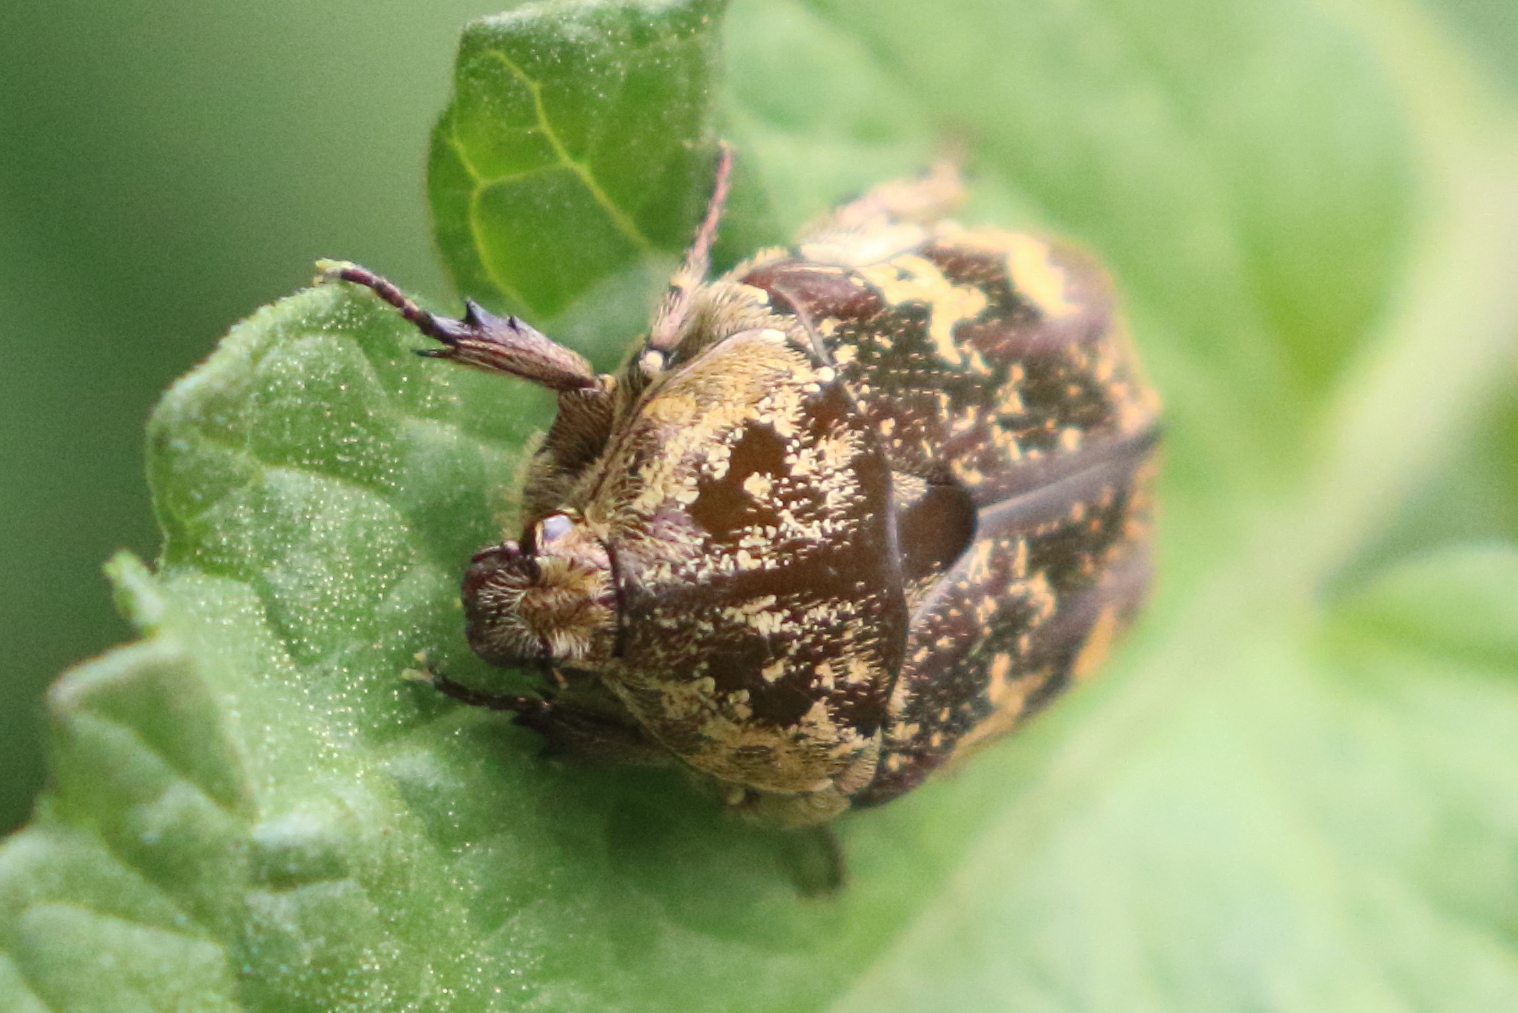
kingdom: Animalia
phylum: Arthropoda
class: Insecta
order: Coleoptera
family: Scarabaeidae
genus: Protaetia
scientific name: Protaetia fusca
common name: Mango flower beetle
